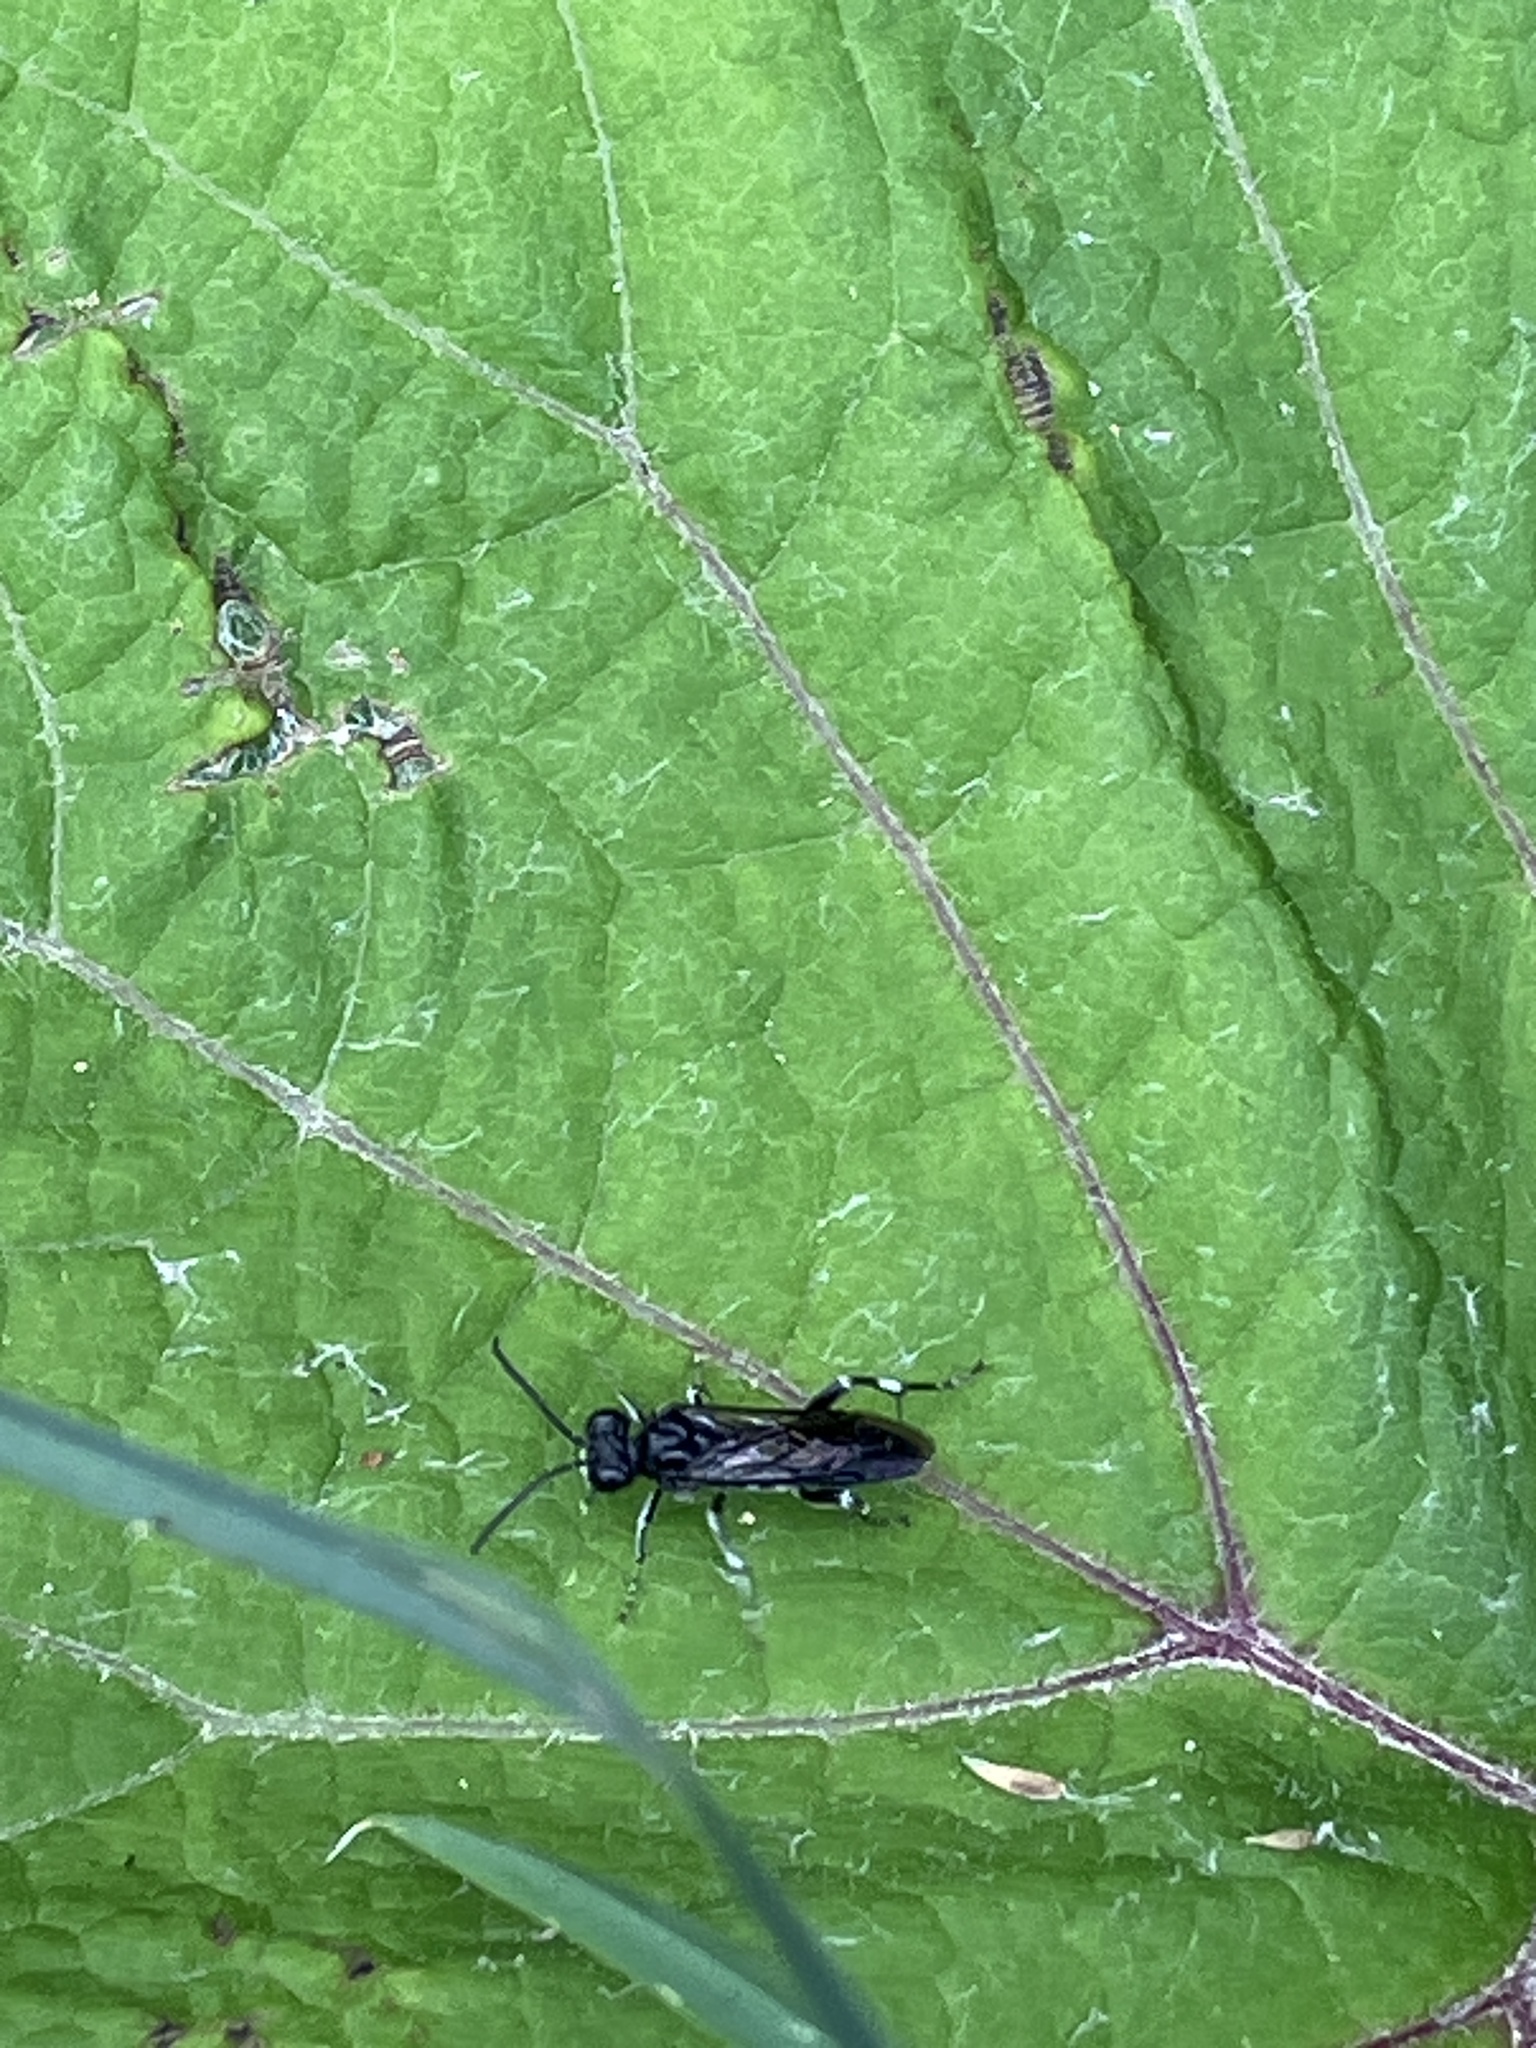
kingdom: Animalia
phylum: Arthropoda
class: Insecta
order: Hymenoptera
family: Tenthredinidae
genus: Macrophya
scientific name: Macrophya ribis
